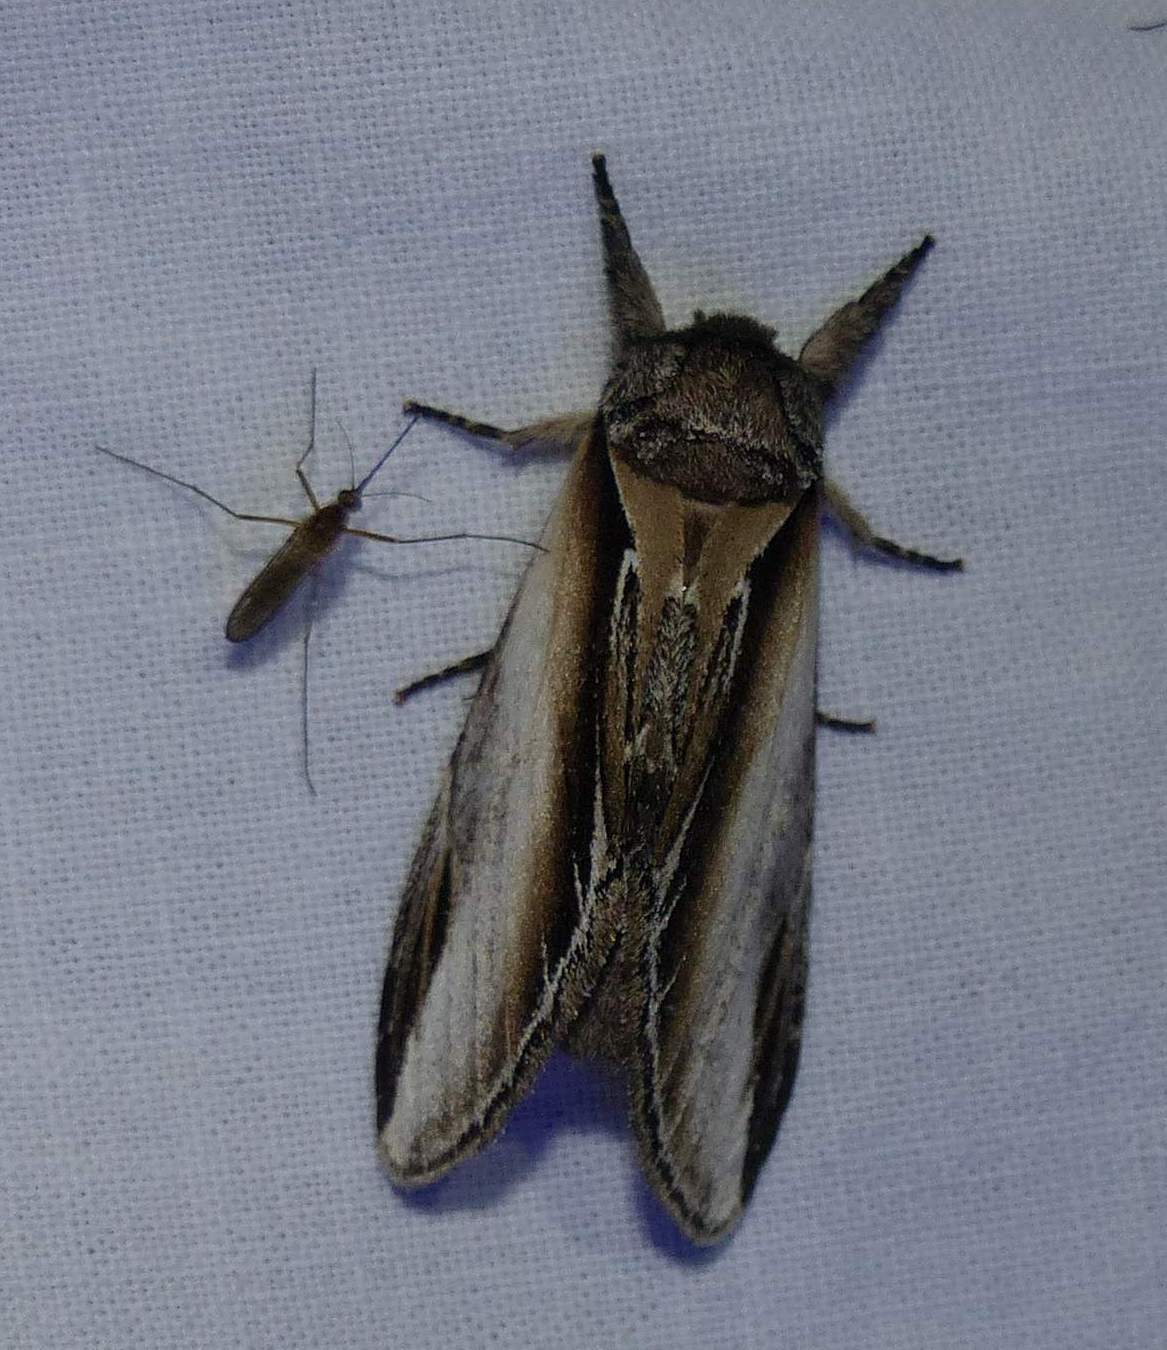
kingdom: Animalia
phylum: Arthropoda
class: Insecta
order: Lepidoptera
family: Notodontidae
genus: Pheosia
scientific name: Pheosia rimosa
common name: Black-rimmed prominent
